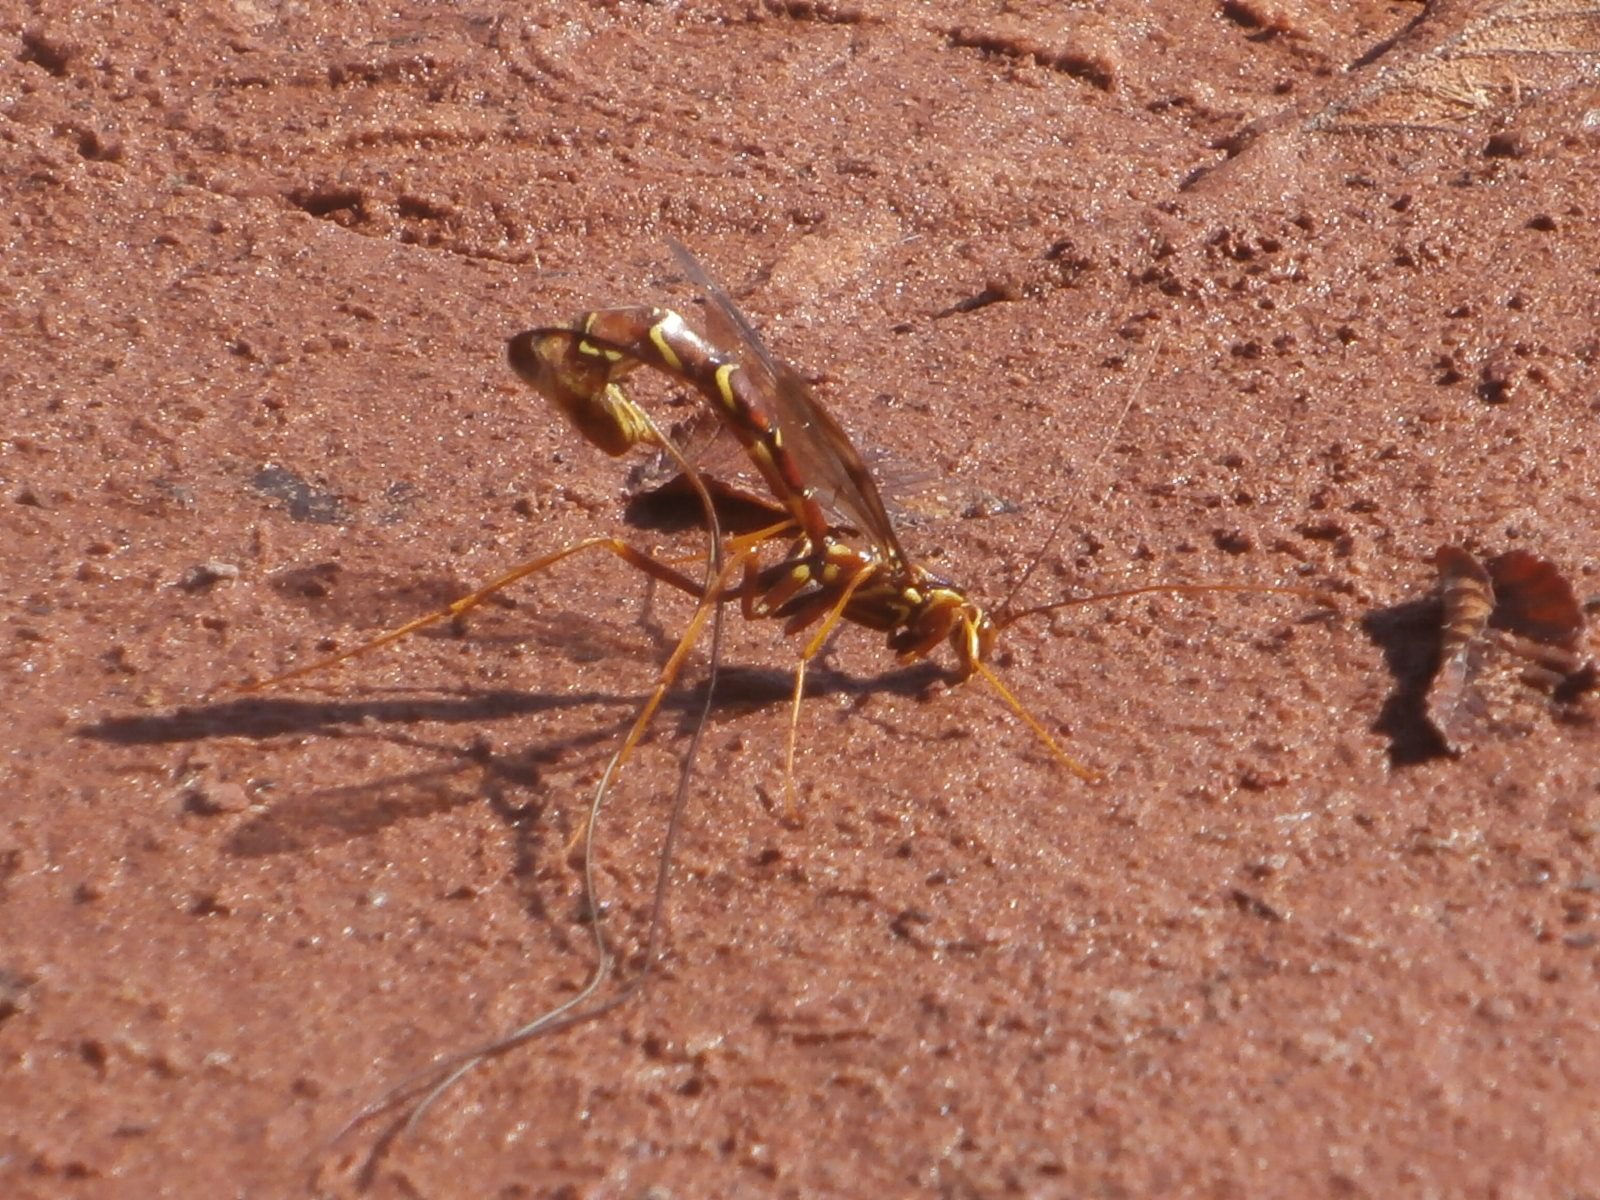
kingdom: Animalia
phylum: Arthropoda
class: Insecta
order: Hymenoptera
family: Ichneumonidae
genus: Megarhyssa
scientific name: Megarhyssa macrura
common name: Long-tailed giant ichneumonid wasp
